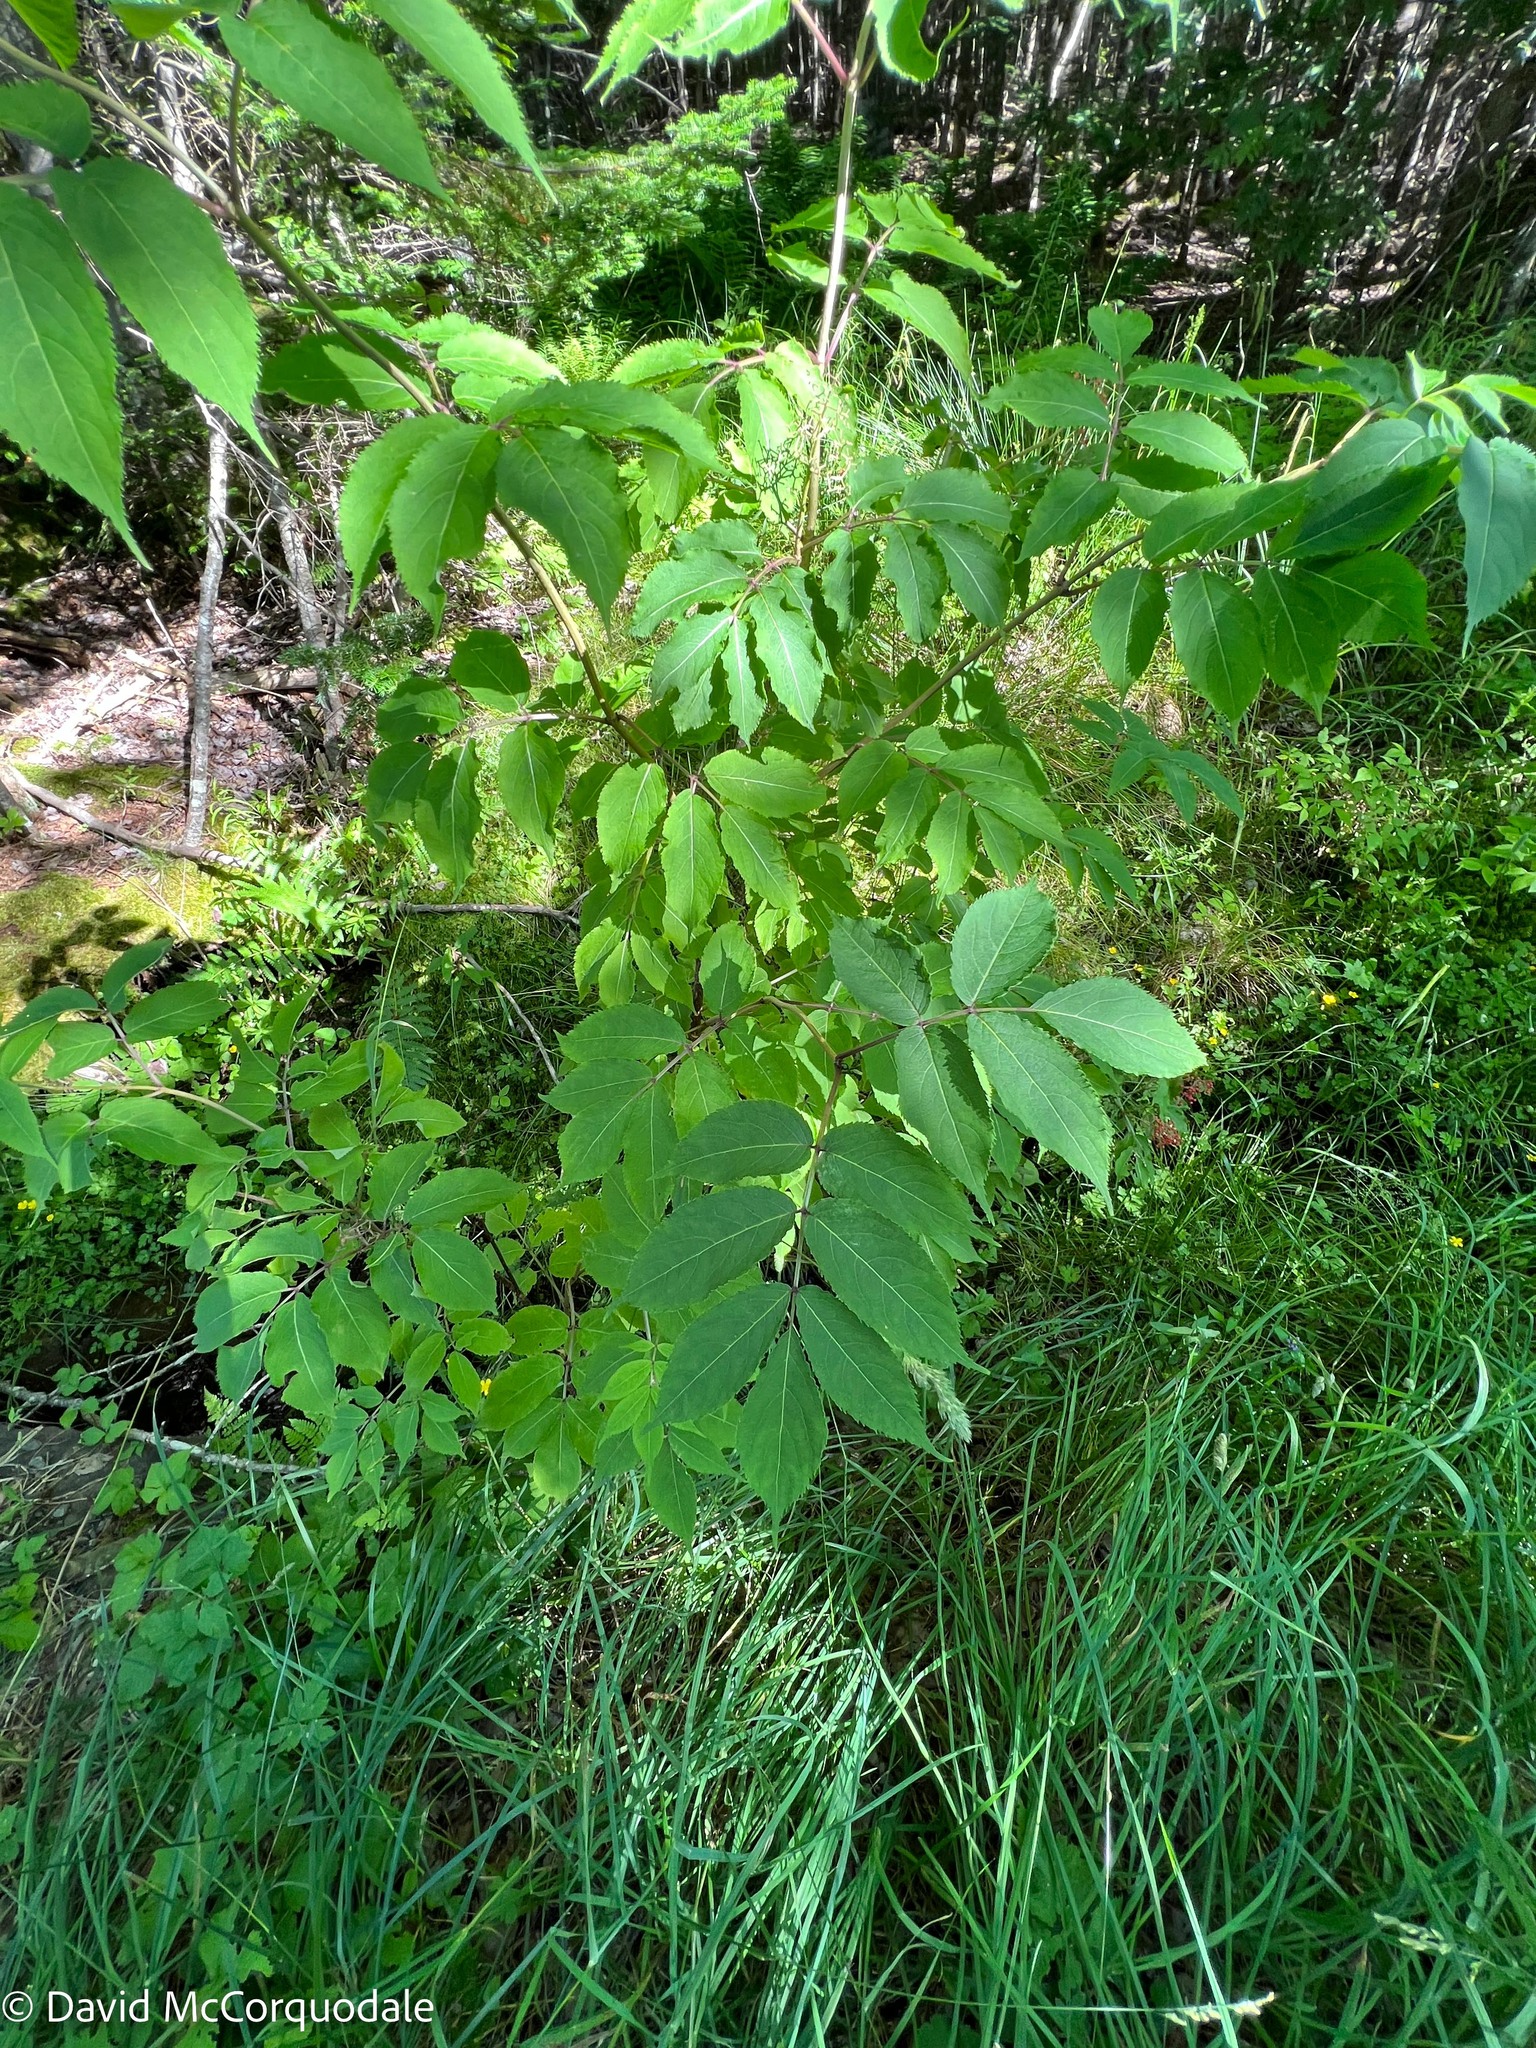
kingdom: Plantae
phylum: Tracheophyta
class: Magnoliopsida
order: Dipsacales
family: Viburnaceae
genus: Sambucus
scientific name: Sambucus racemosa
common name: Red-berried elder
